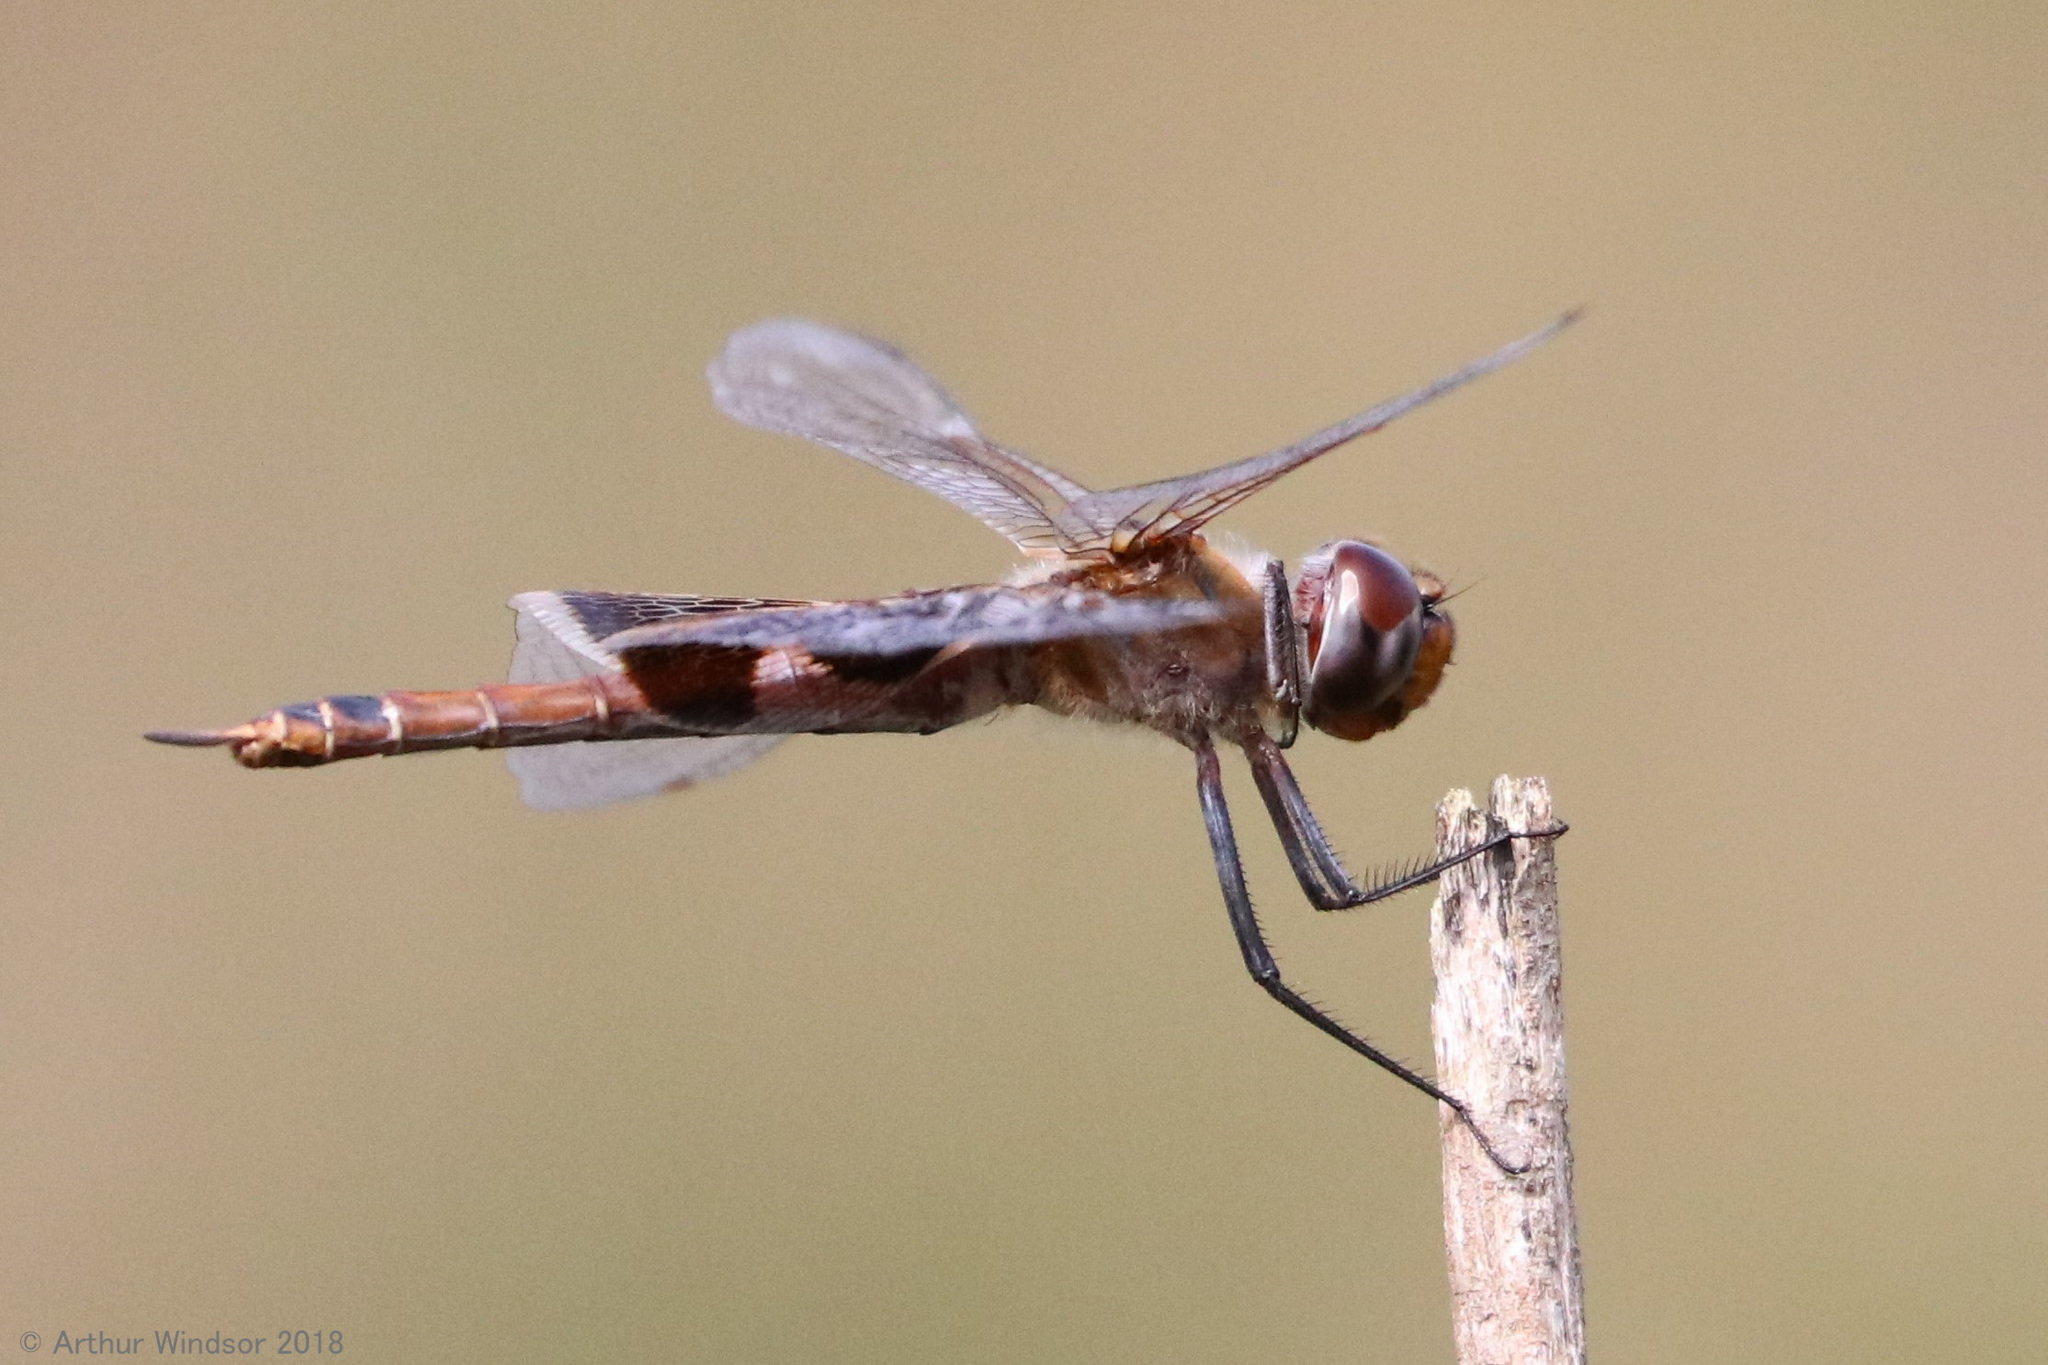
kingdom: Animalia
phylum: Arthropoda
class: Insecta
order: Odonata
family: Libellulidae
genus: Tramea
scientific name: Tramea onusta
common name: Red saddlebags
